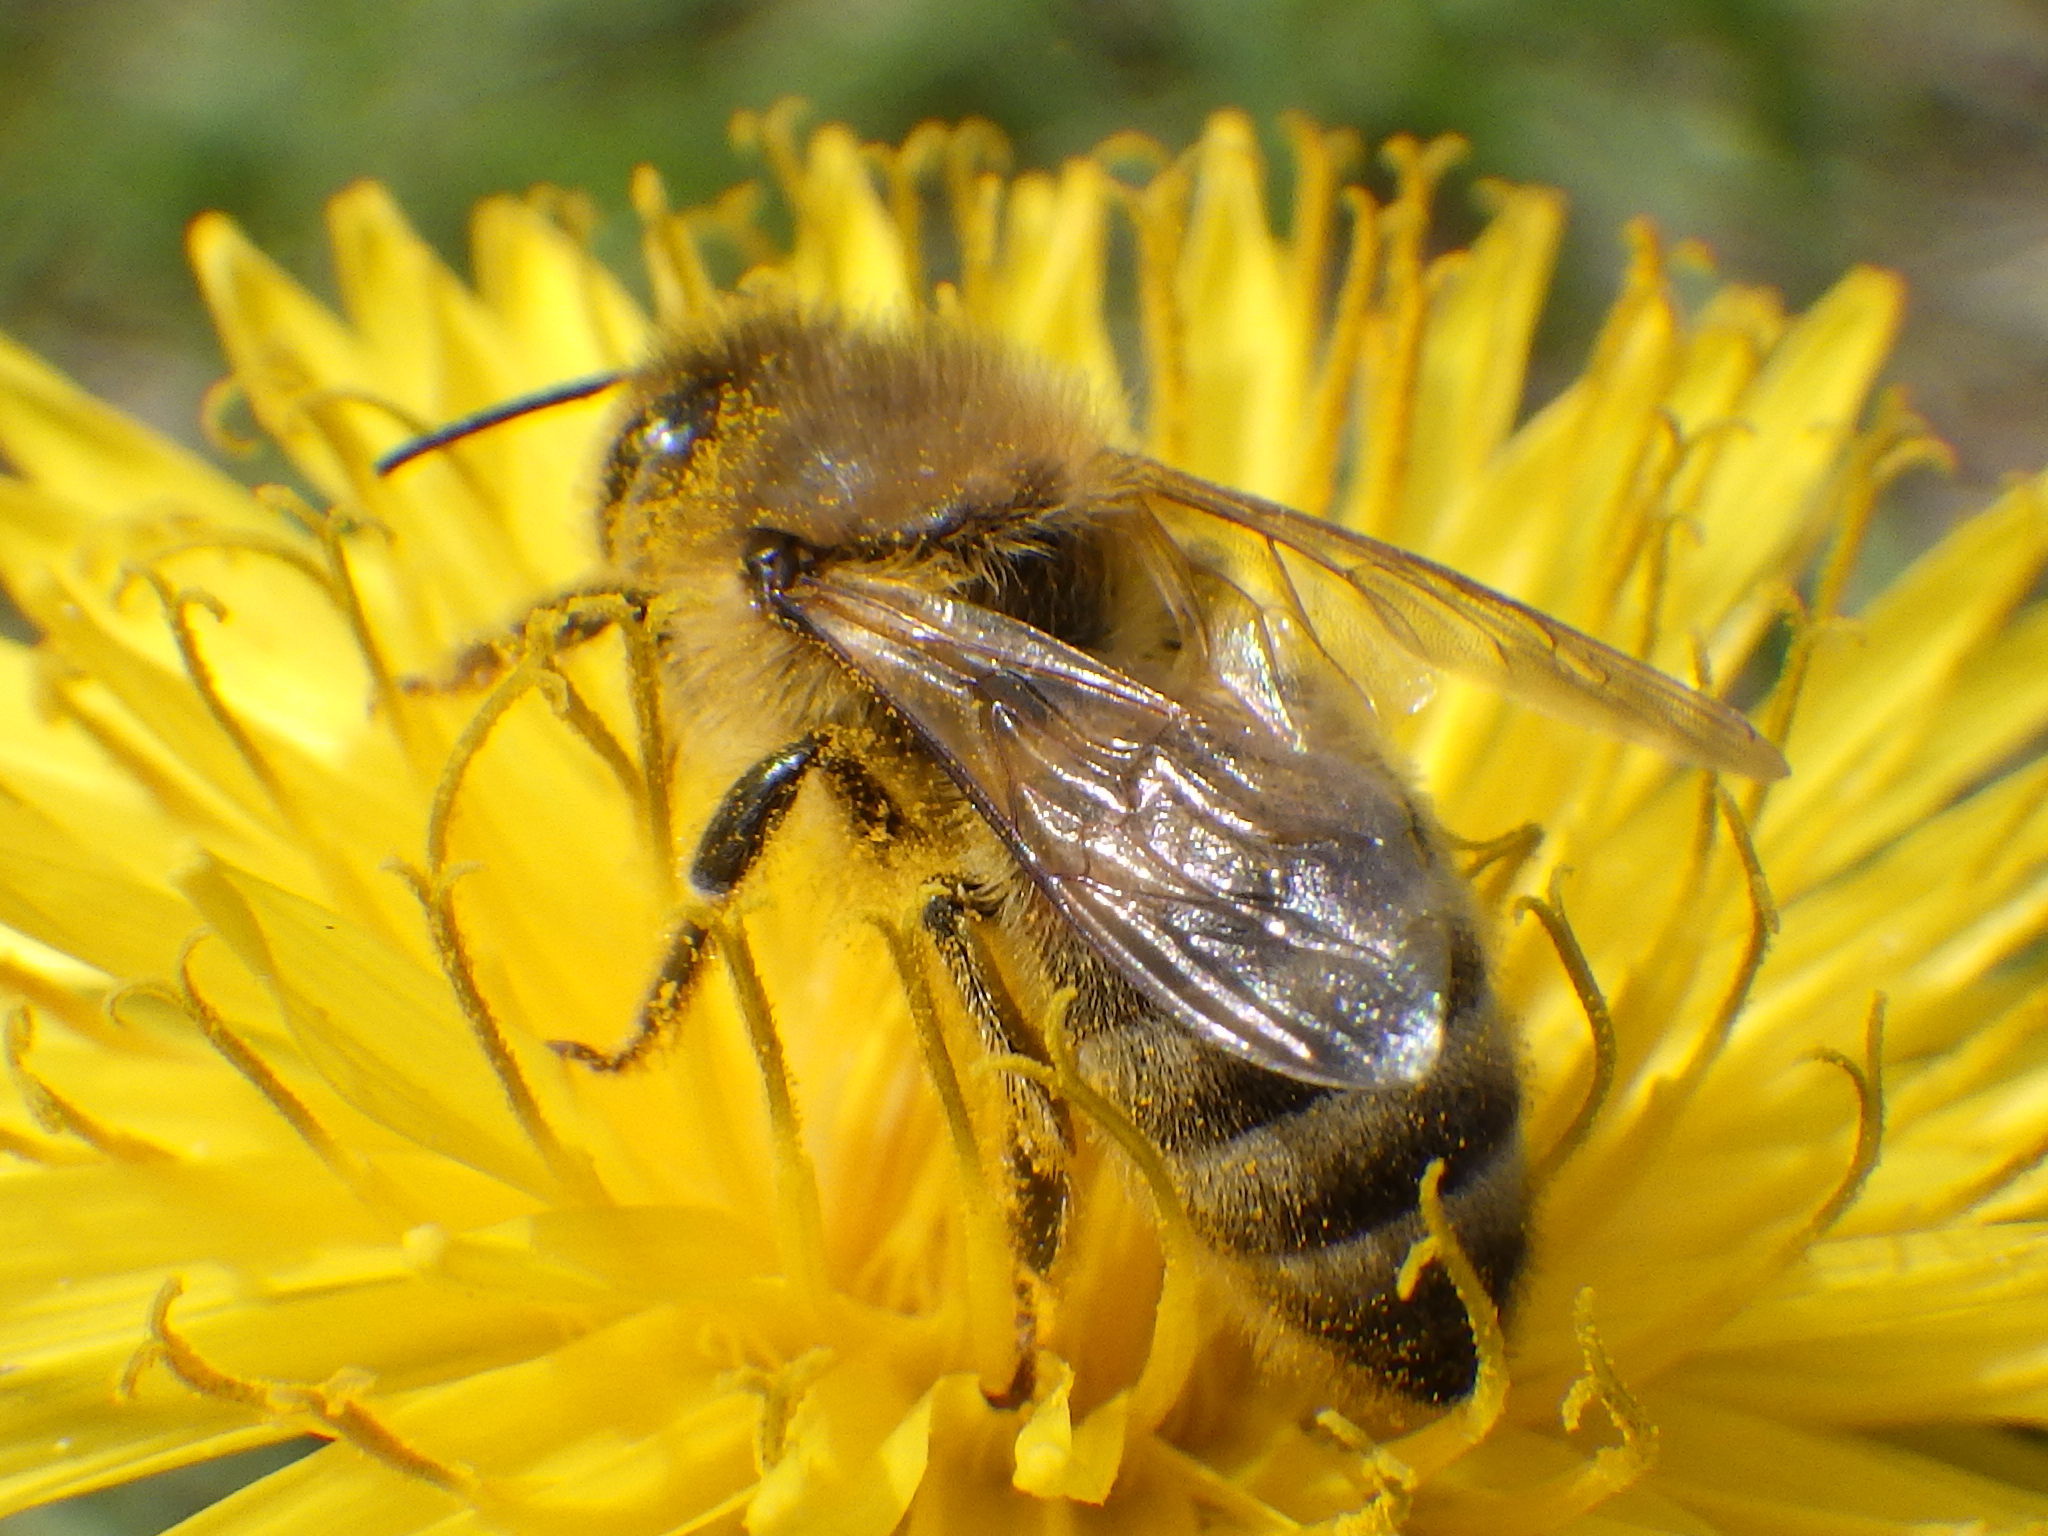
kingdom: Animalia
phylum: Arthropoda
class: Insecta
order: Hymenoptera
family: Apidae
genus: Apis
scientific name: Apis mellifera
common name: Honey bee
